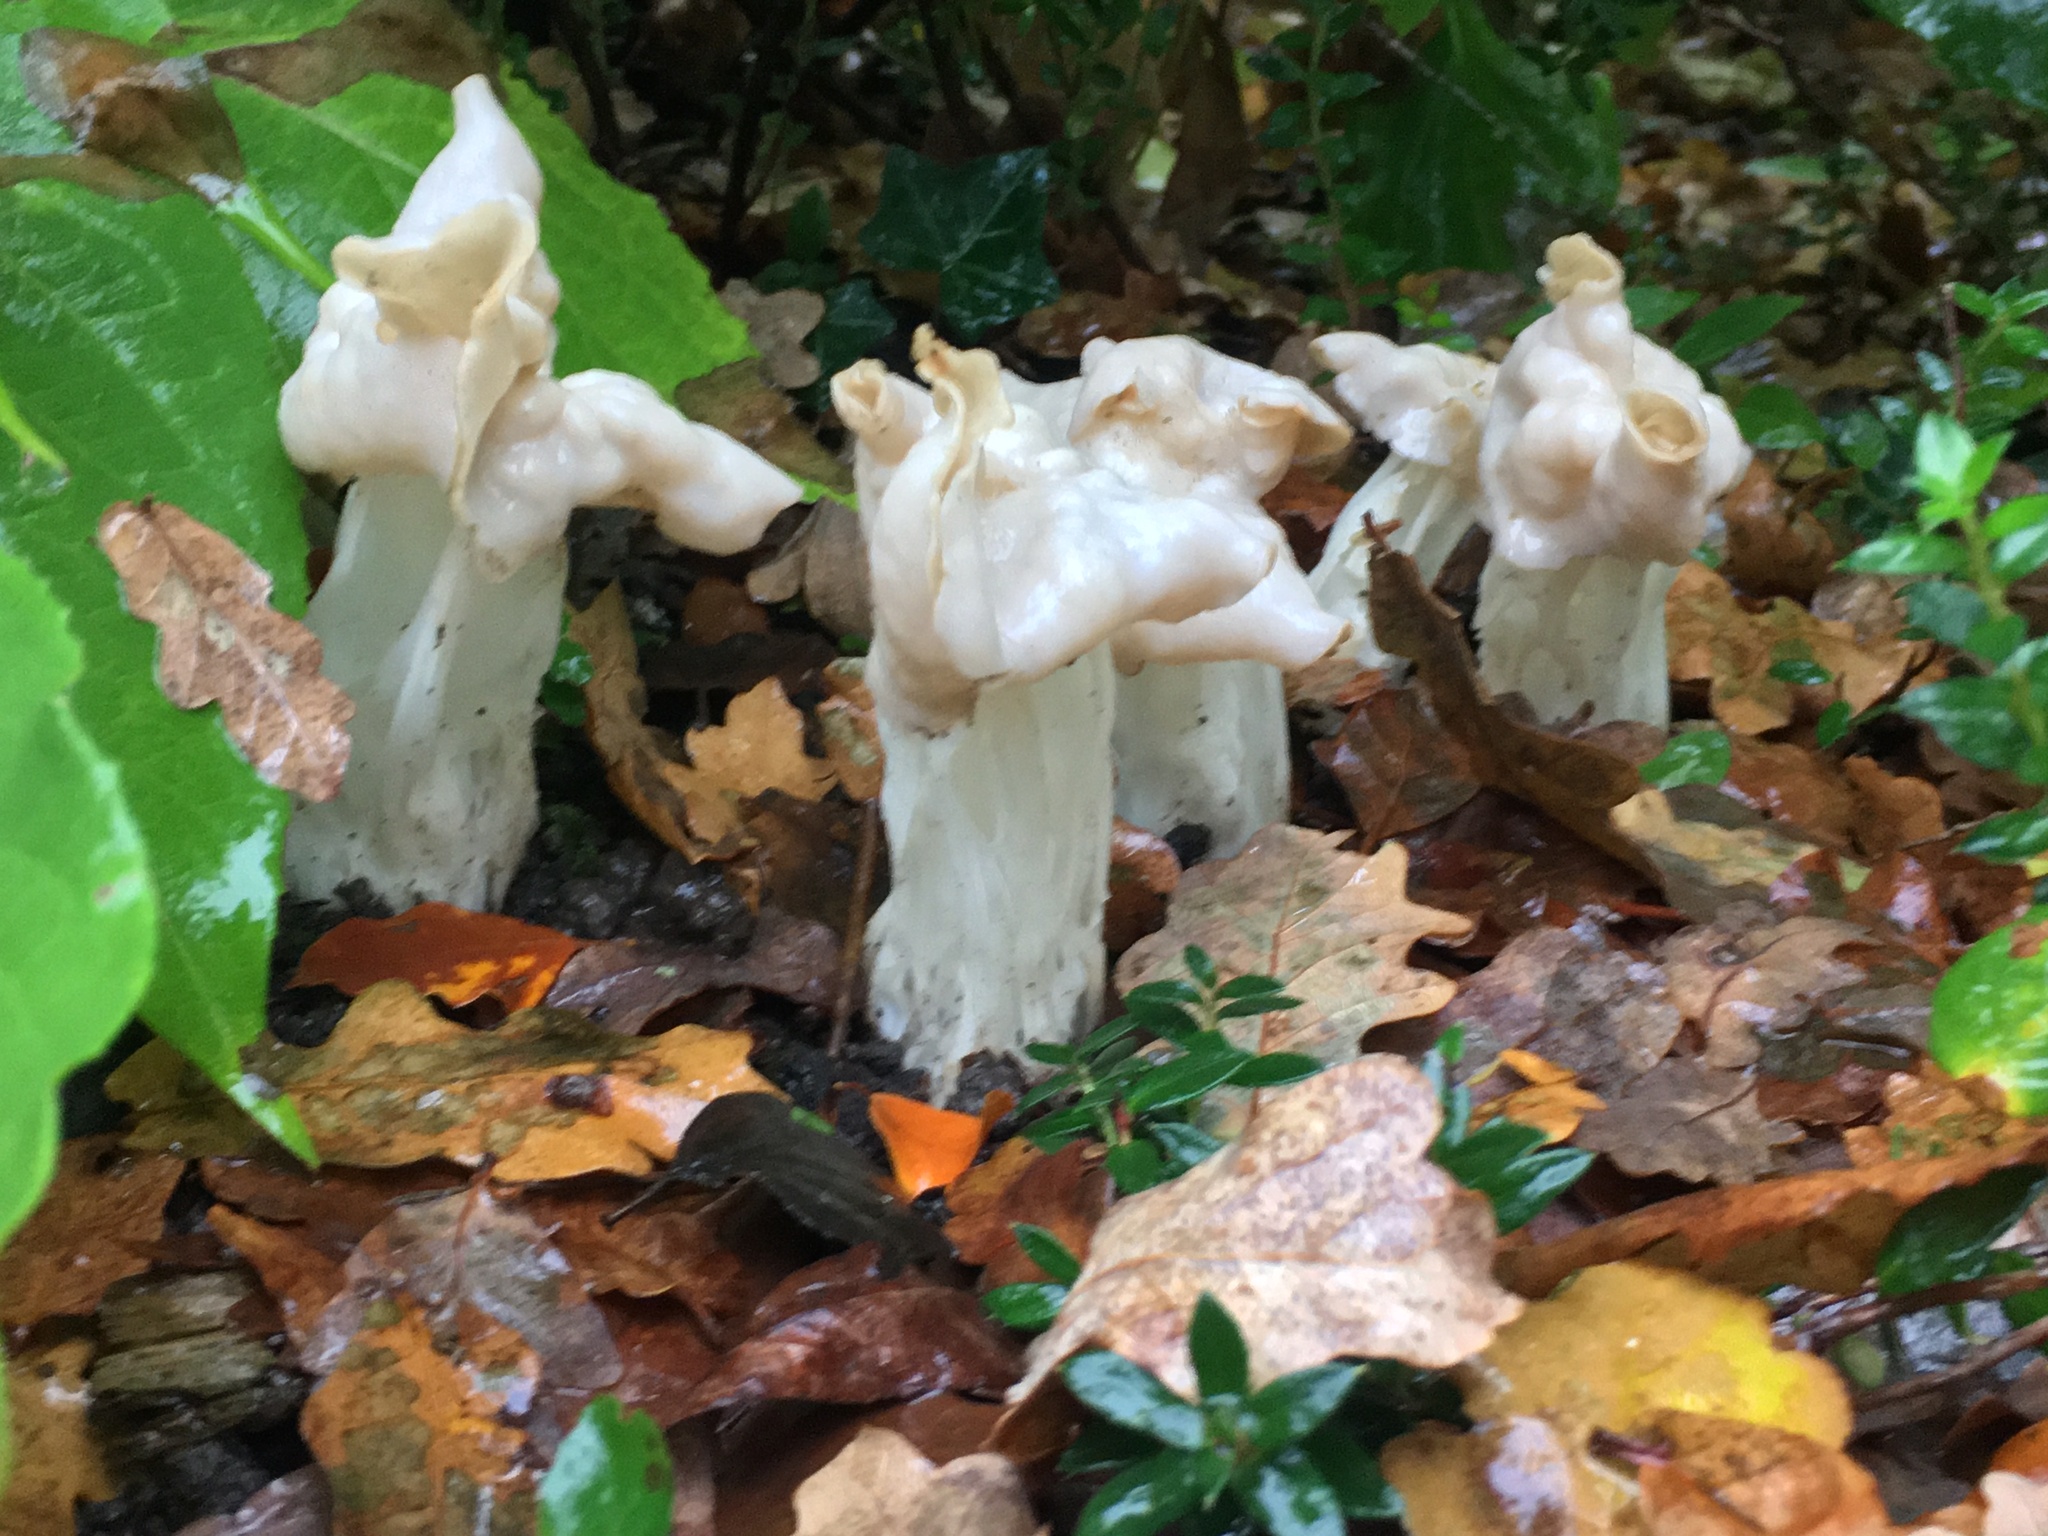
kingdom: Fungi
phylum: Ascomycota
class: Pezizomycetes
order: Pezizales
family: Helvellaceae
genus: Helvella
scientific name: Helvella crispa
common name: White saddle
